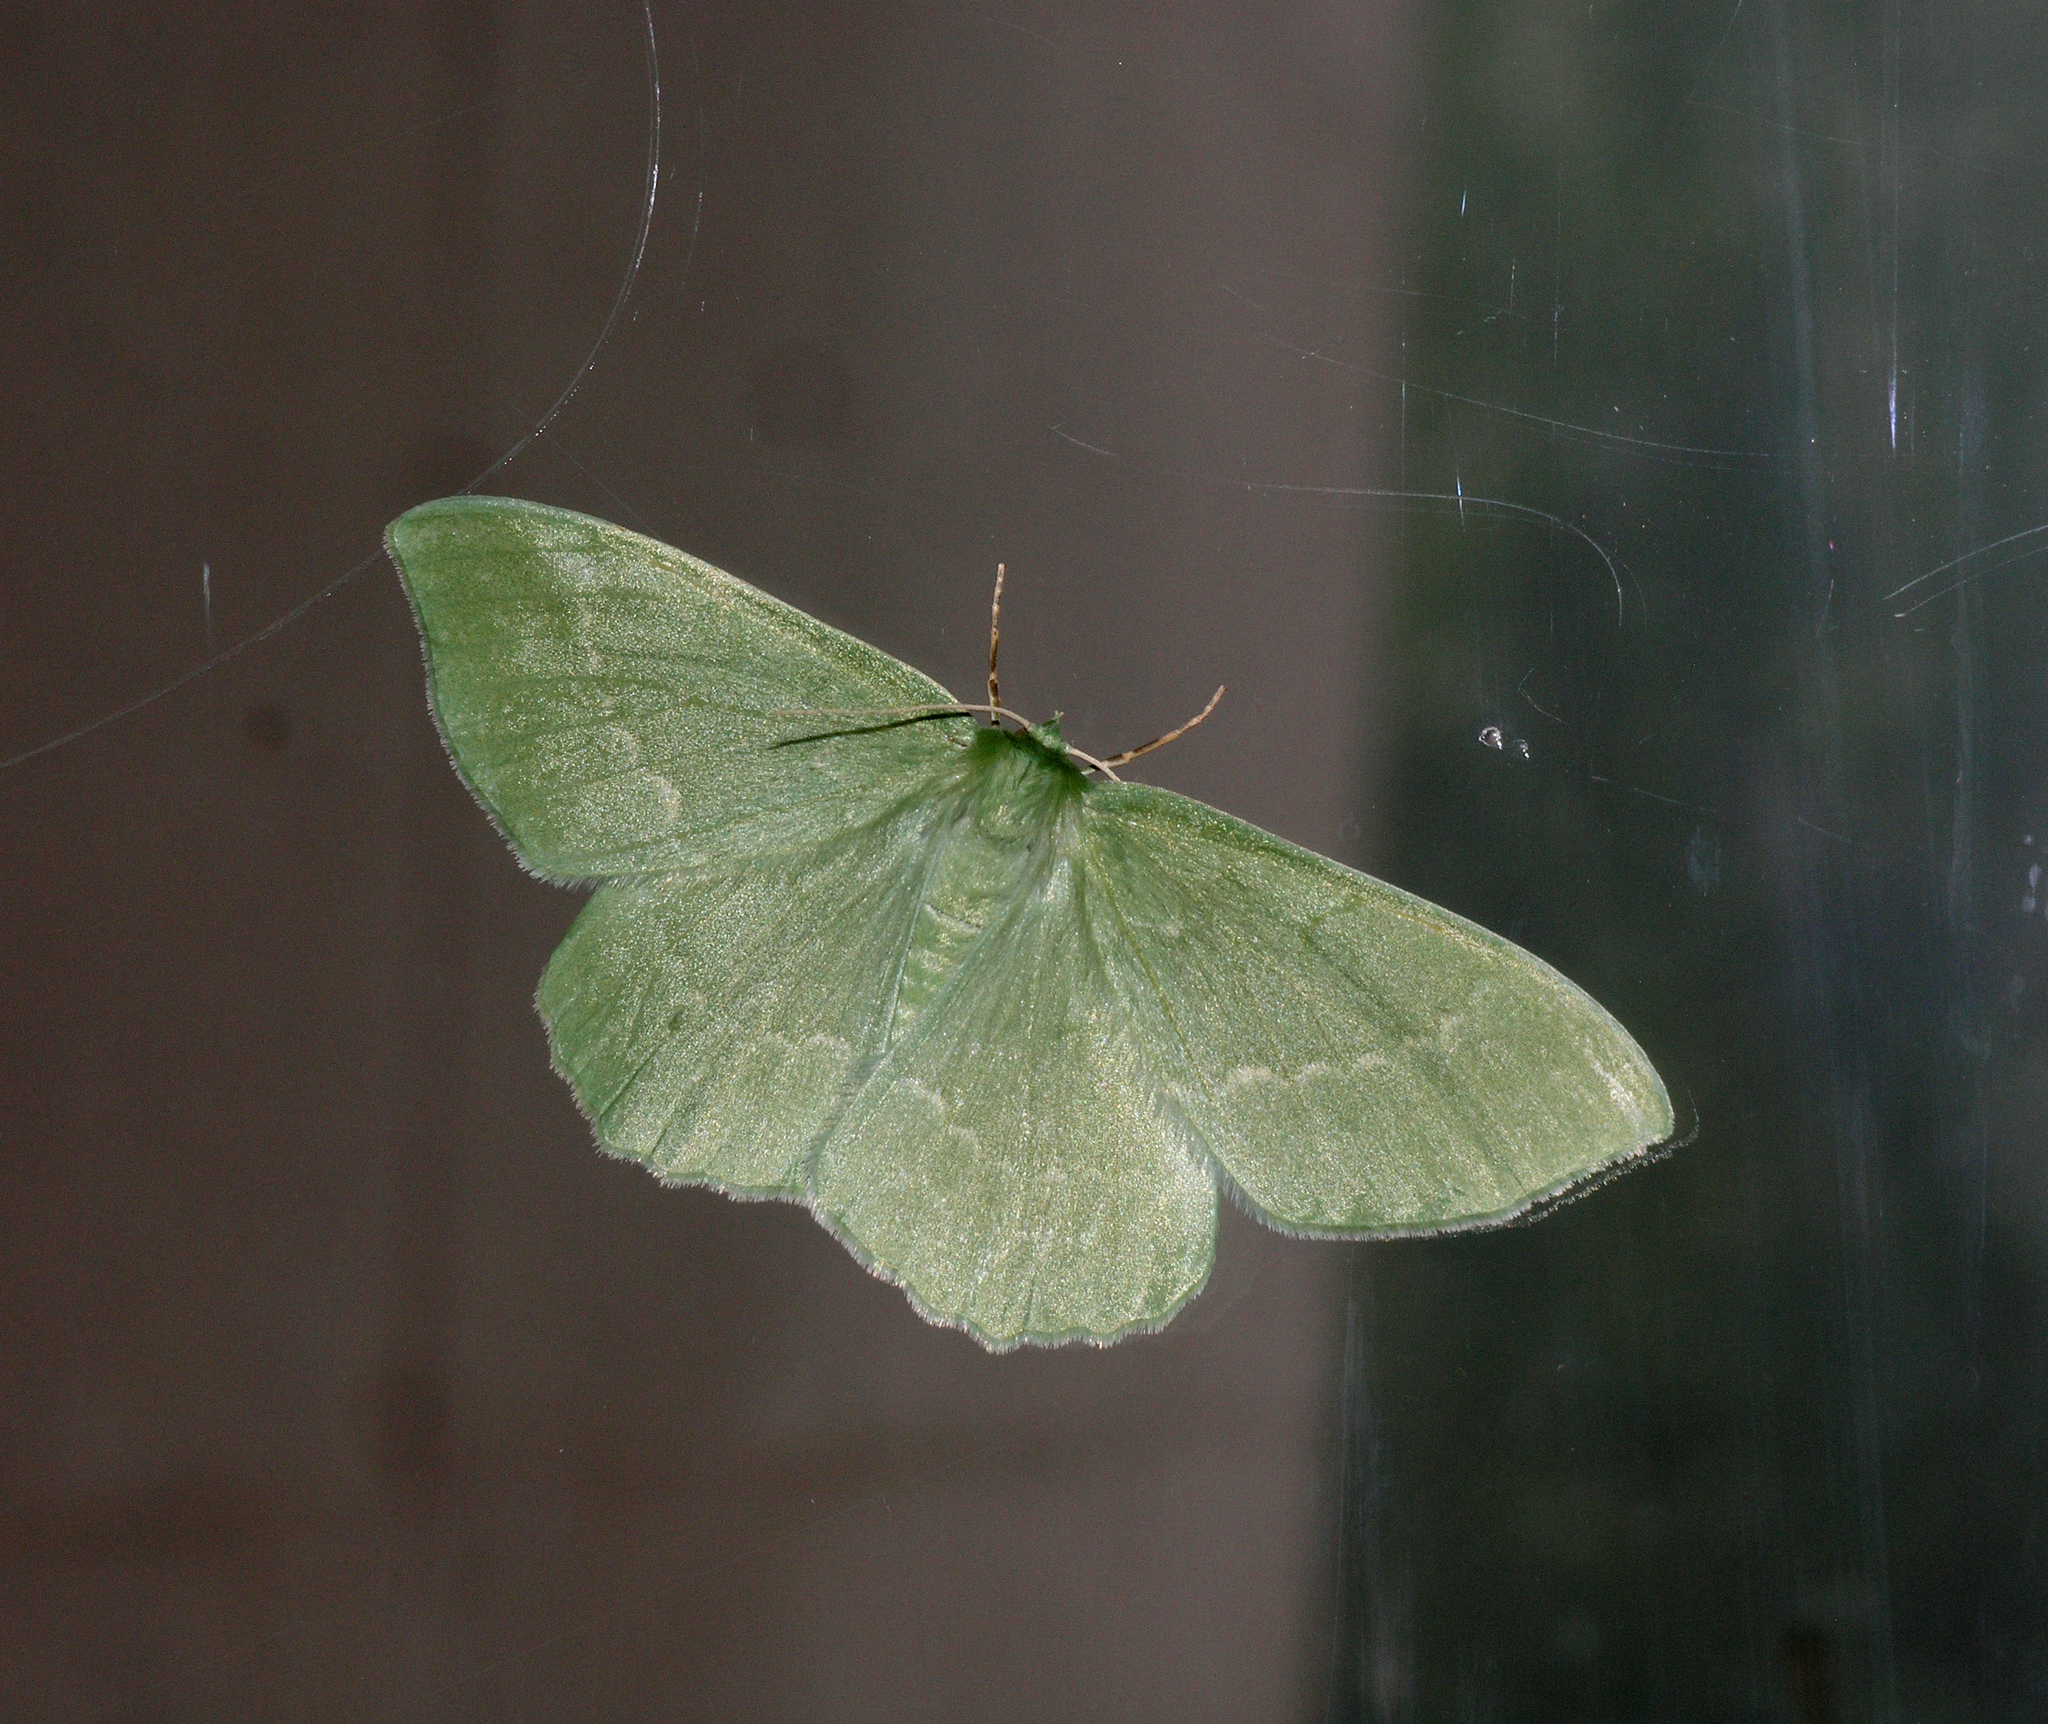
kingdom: Animalia
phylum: Arthropoda
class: Insecta
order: Lepidoptera
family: Geometridae
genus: Geometra
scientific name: Geometra papilionaria
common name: Large emerald
